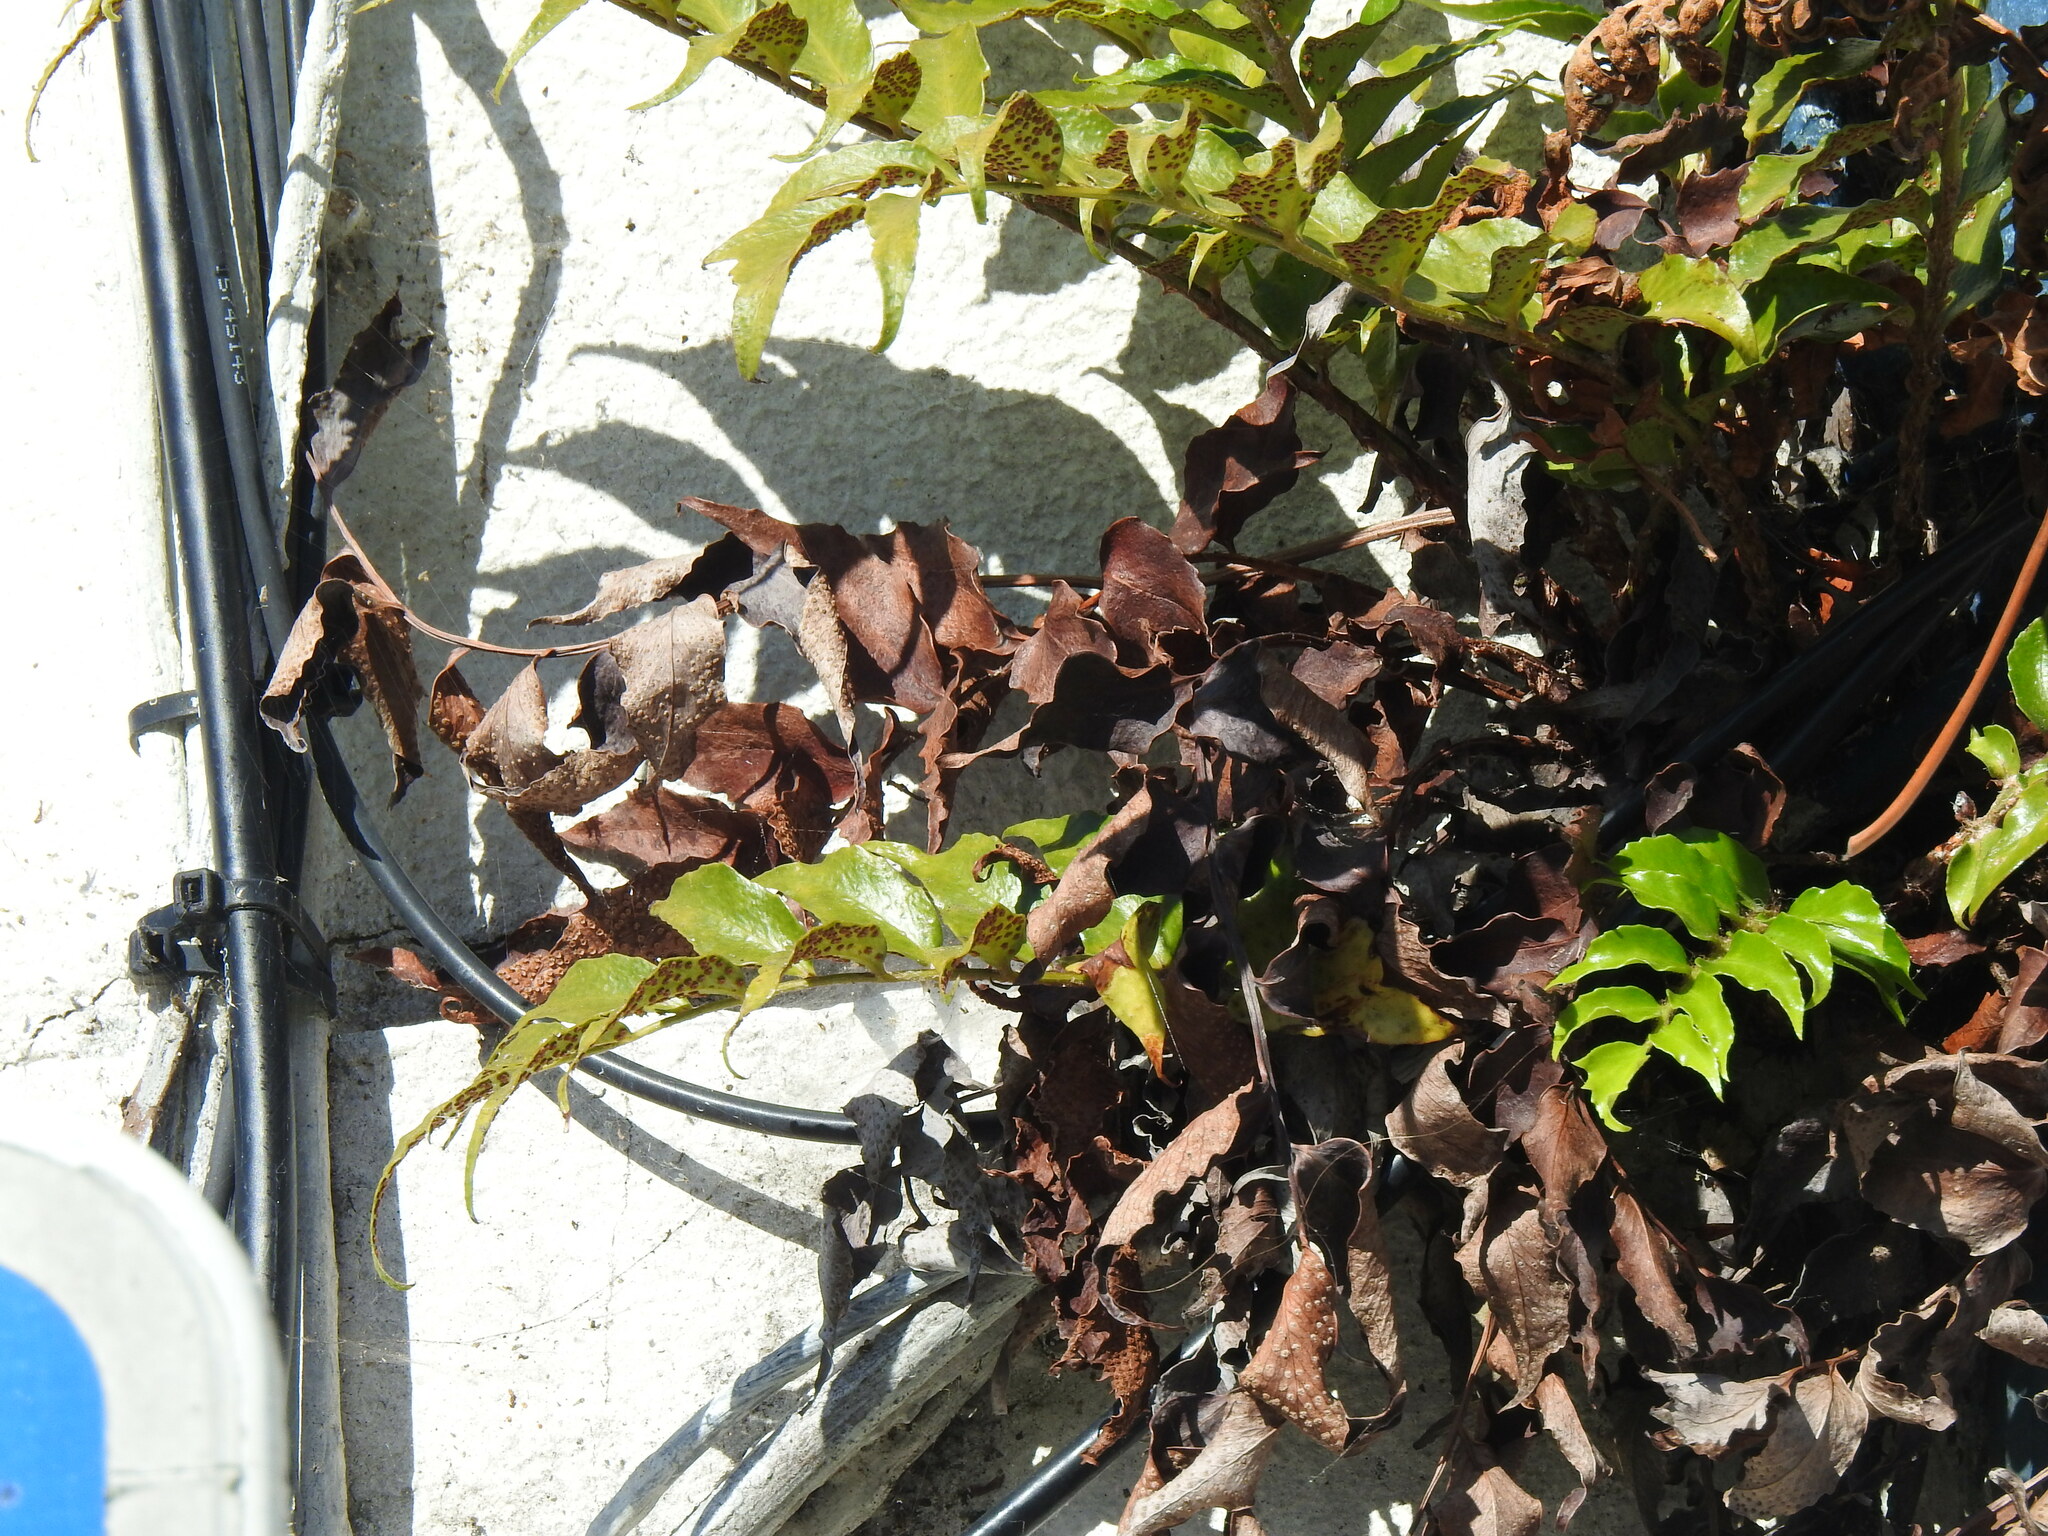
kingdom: Plantae
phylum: Tracheophyta
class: Polypodiopsida
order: Polypodiales
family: Dryopteridaceae
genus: Cyrtomium
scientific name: Cyrtomium falcatum
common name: House holly-fern
